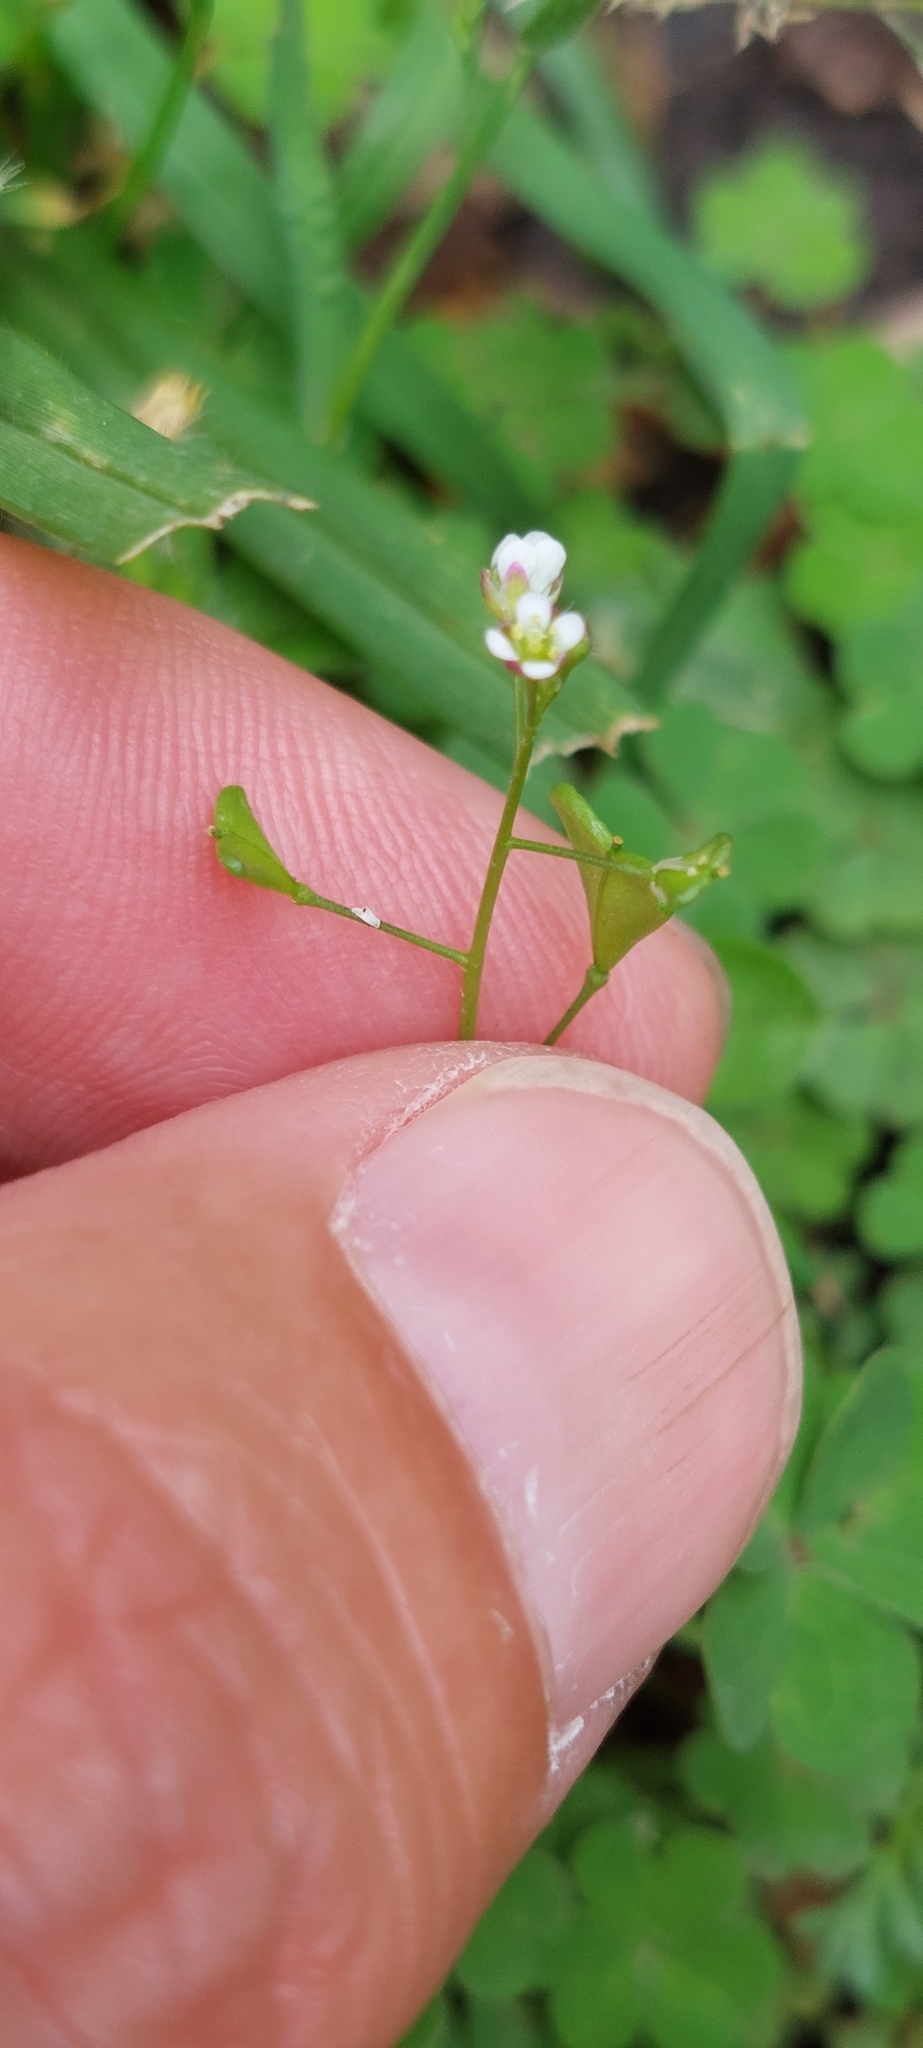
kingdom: Plantae
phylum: Tracheophyta
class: Magnoliopsida
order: Brassicales
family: Brassicaceae
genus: Capsella
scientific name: Capsella bursa-pastoris
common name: Shepherd's purse
